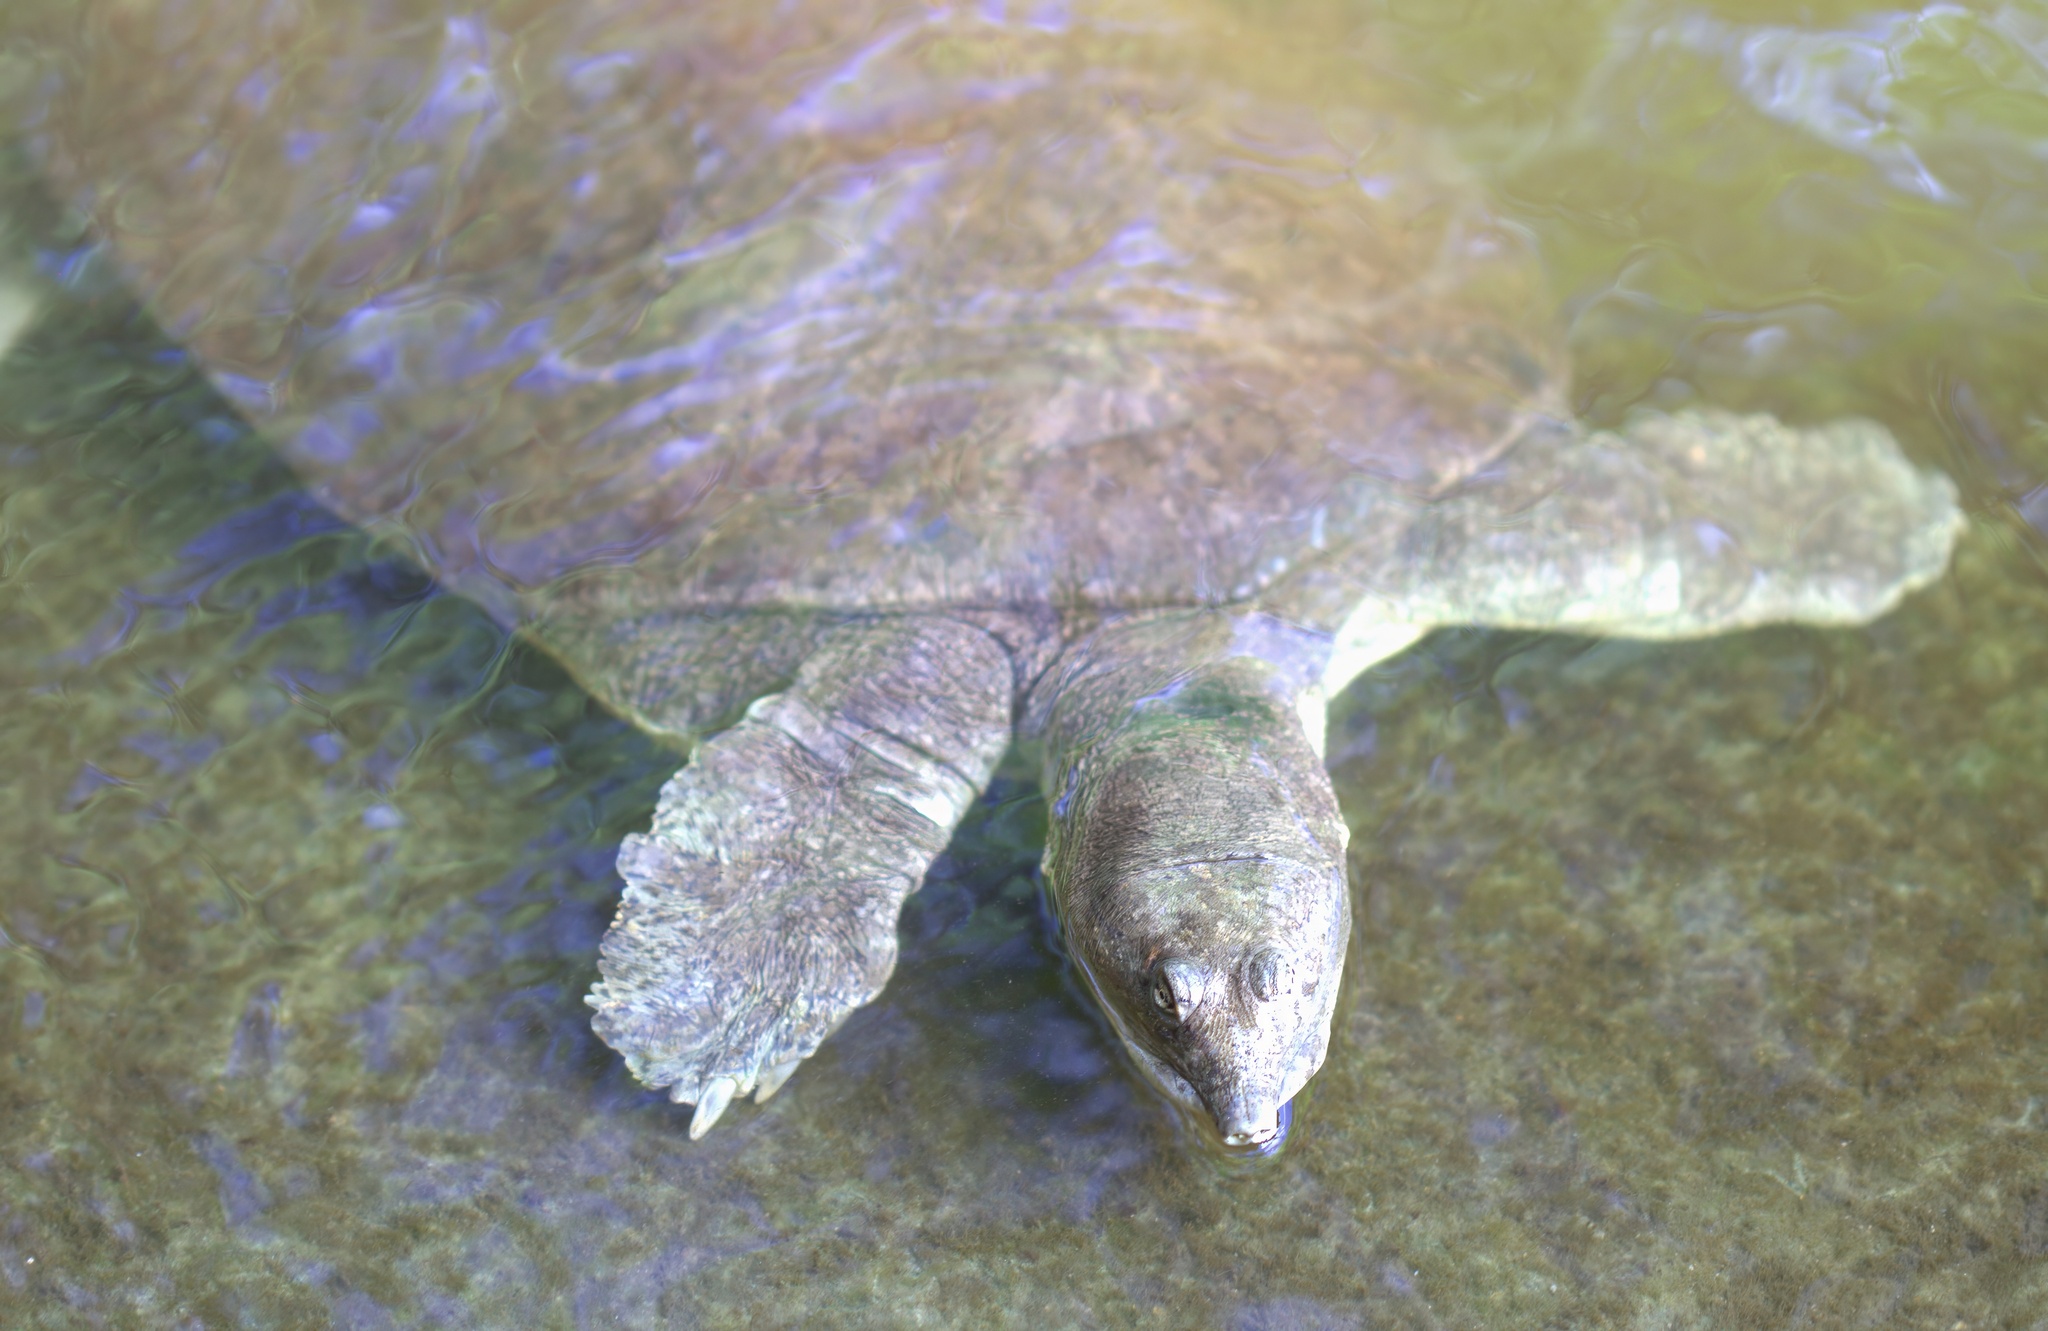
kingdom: Animalia
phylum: Chordata
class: Testudines
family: Trionychidae
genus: Apalone
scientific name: Apalone spinifera
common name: Spiny softshell turtle
